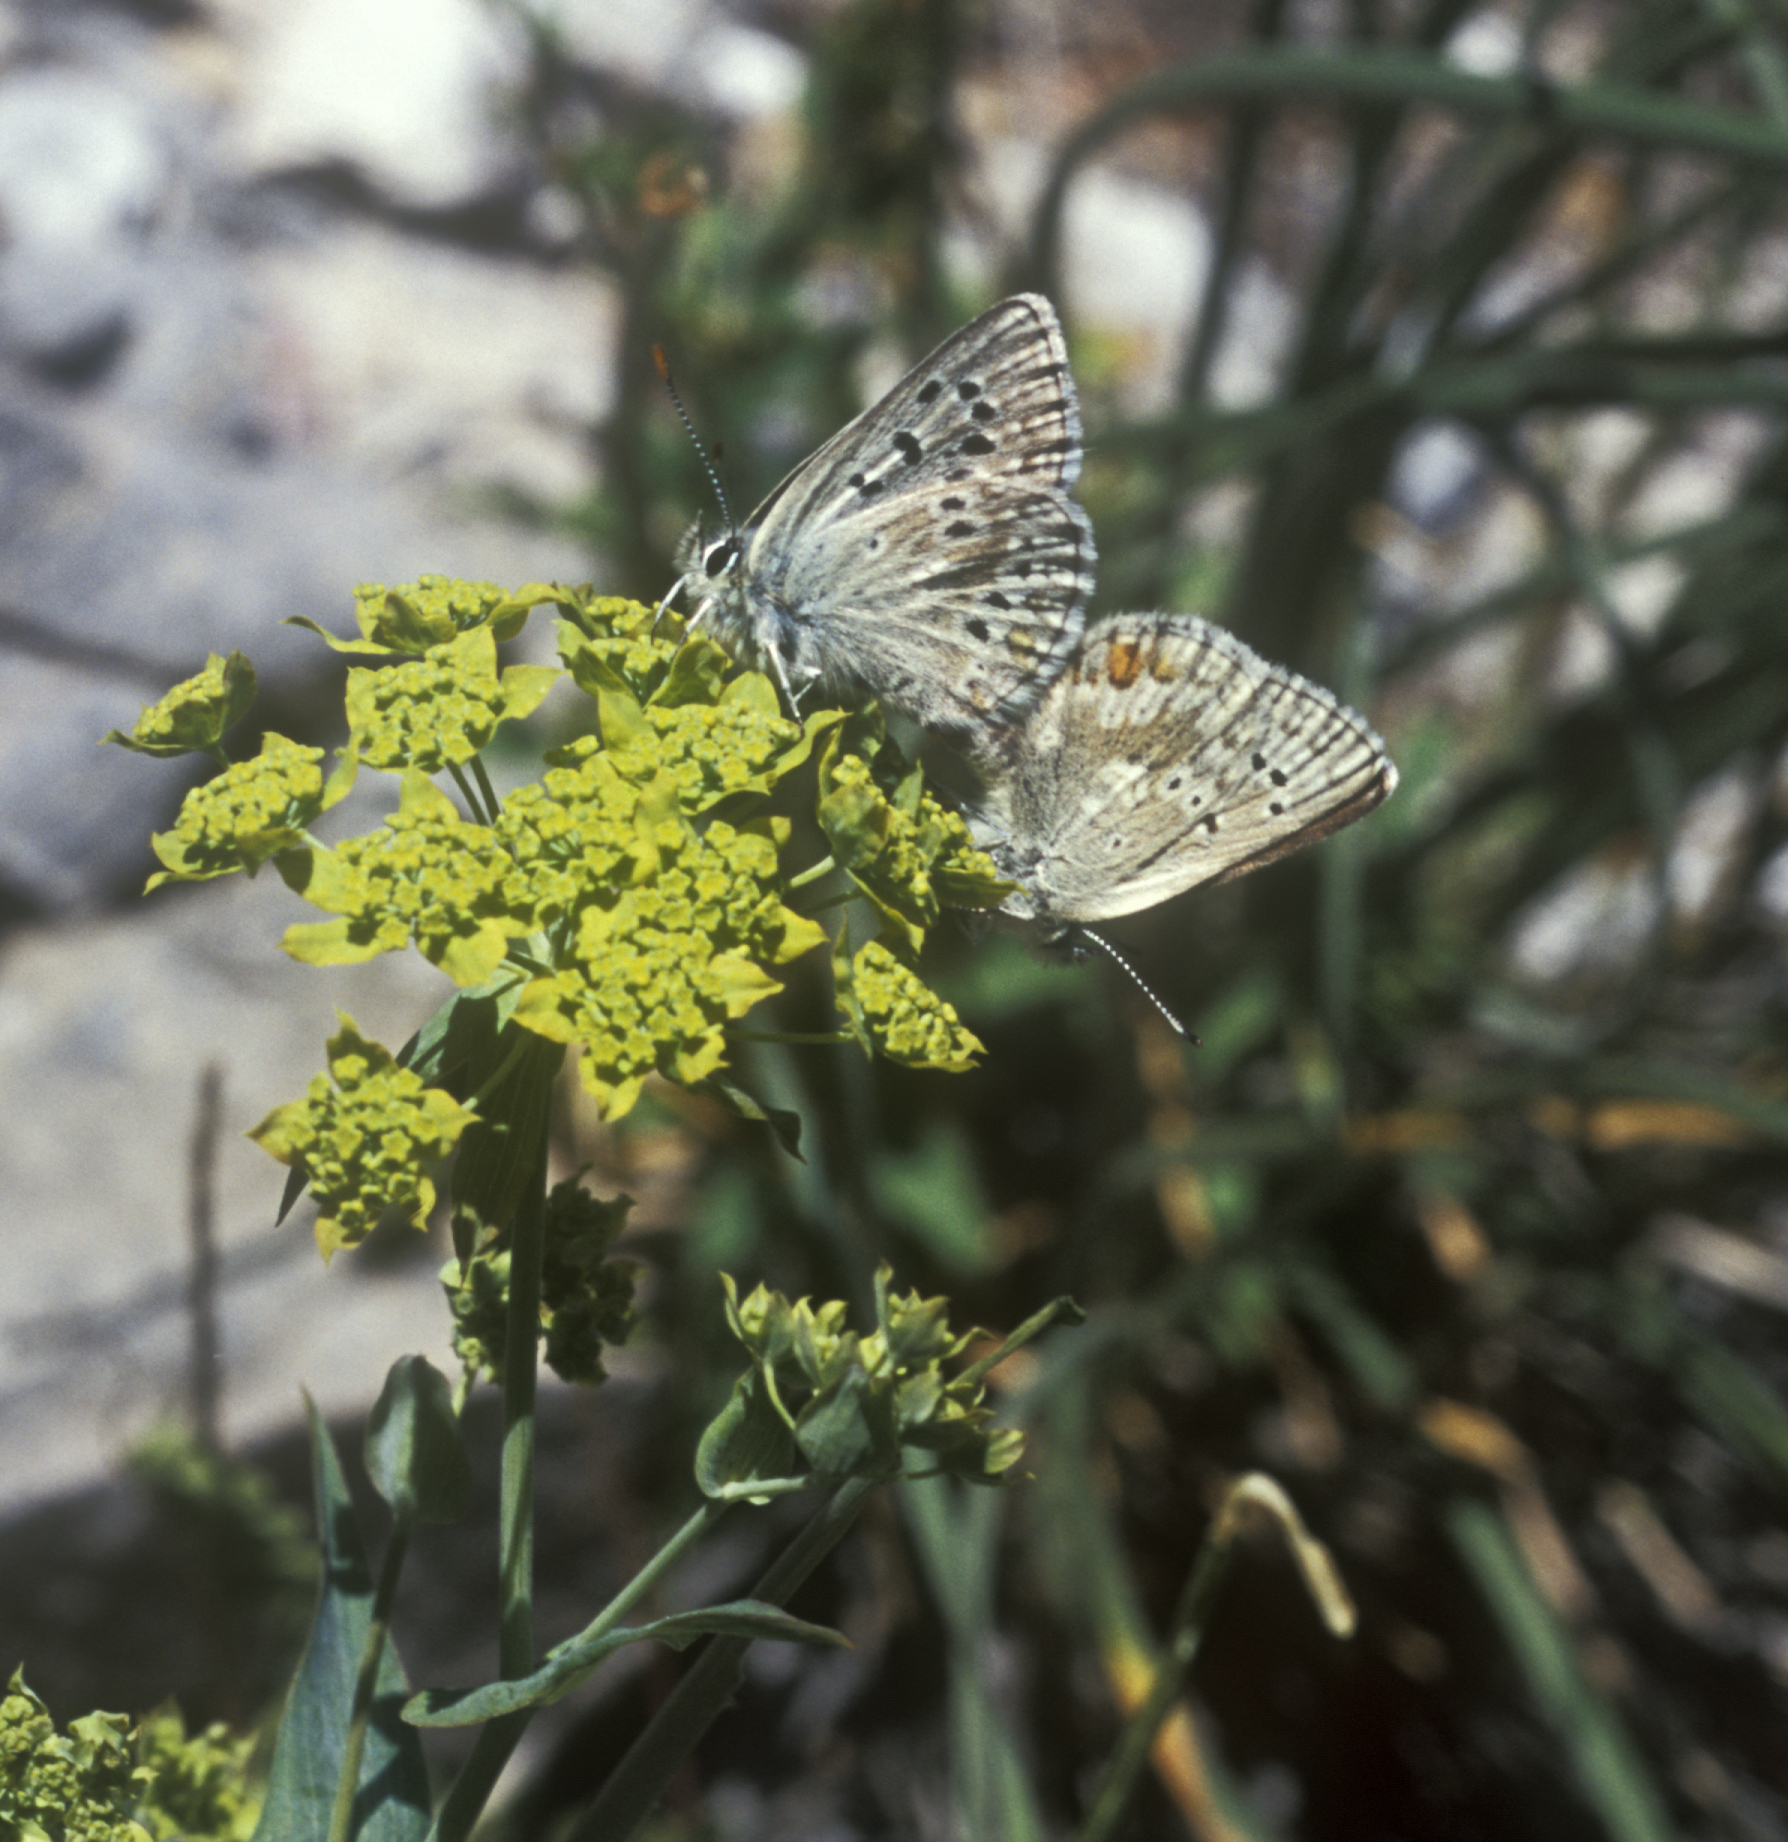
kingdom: Plantae
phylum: Tracheophyta
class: Magnoliopsida
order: Apiales
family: Apiaceae
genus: Bupleurum
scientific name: Bupleurum multinerve
